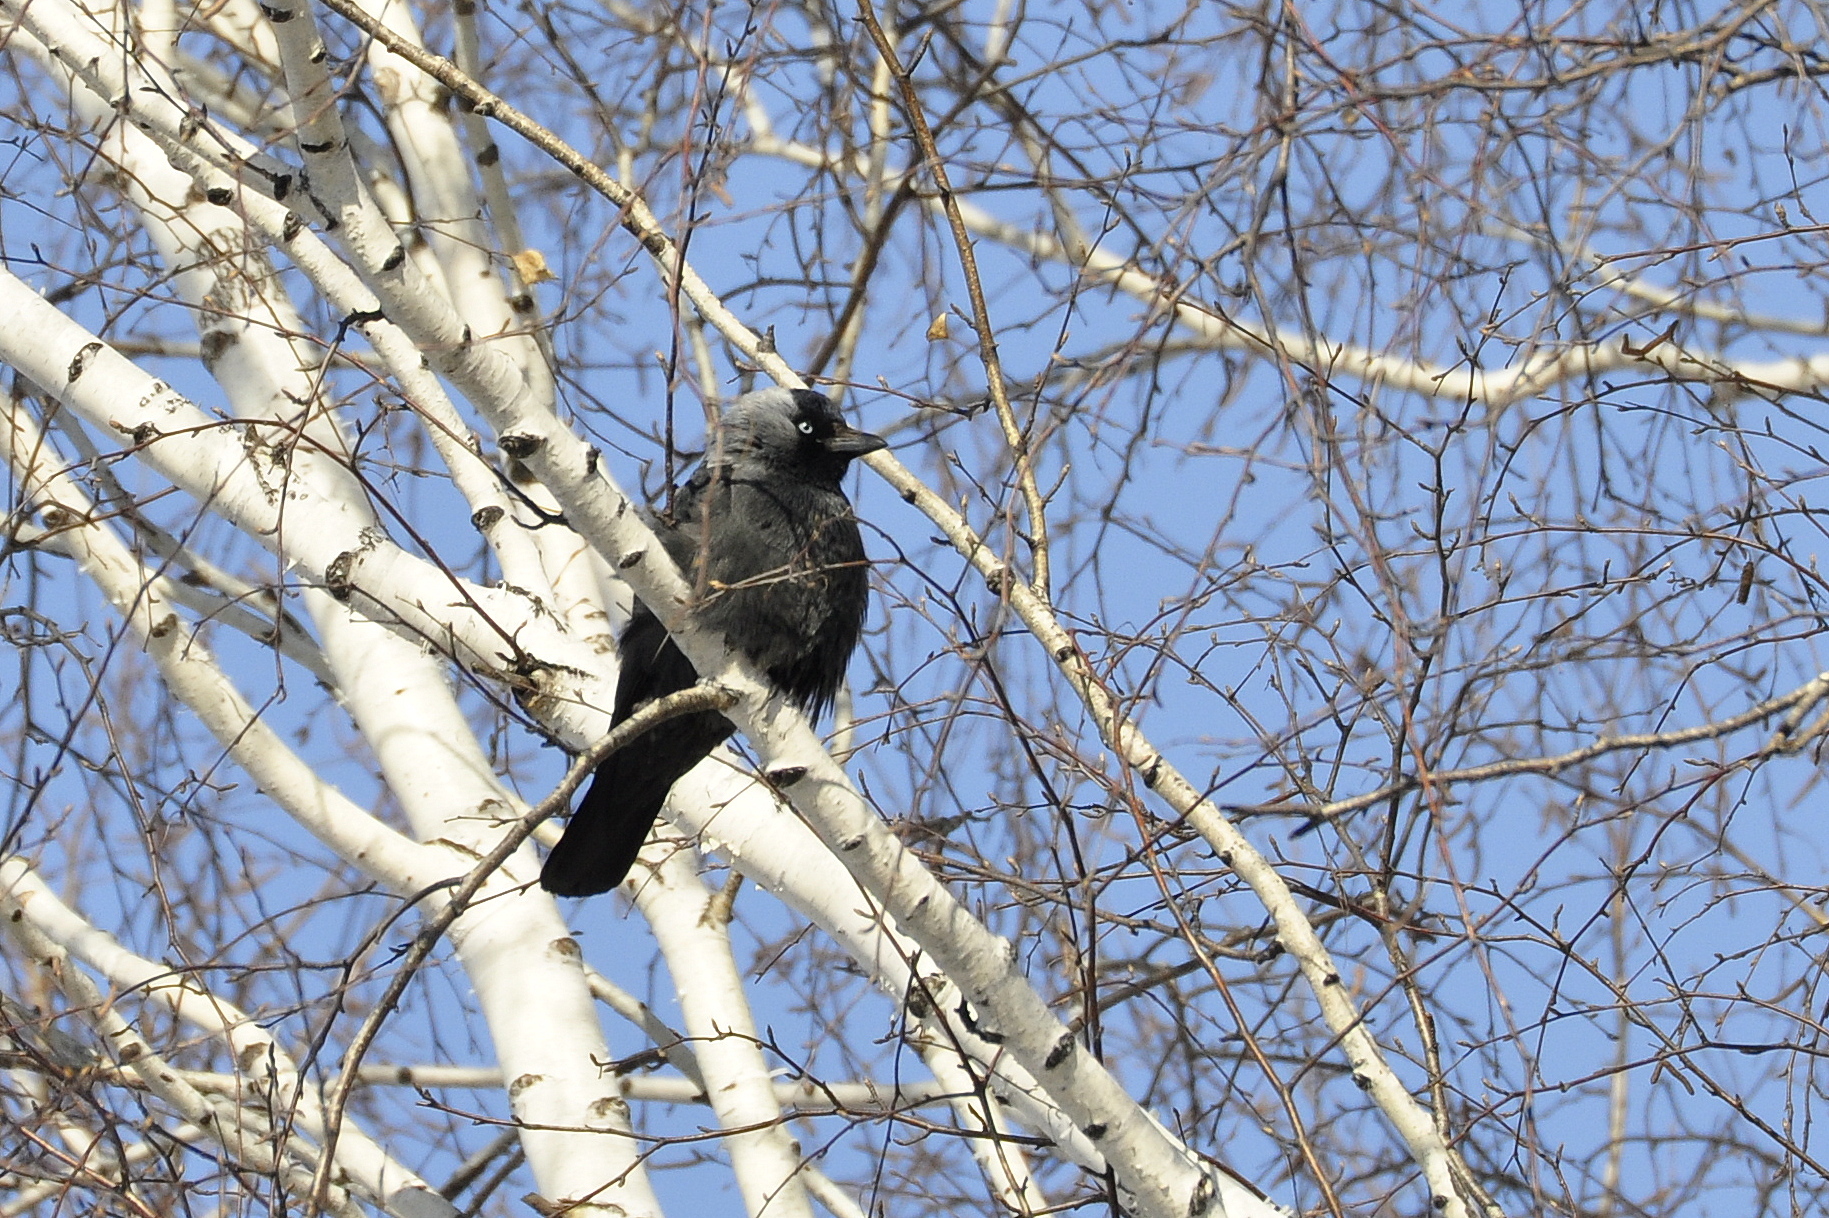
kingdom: Animalia
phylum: Chordata
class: Aves
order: Passeriformes
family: Corvidae
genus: Coloeus
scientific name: Coloeus monedula
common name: Western jackdaw
